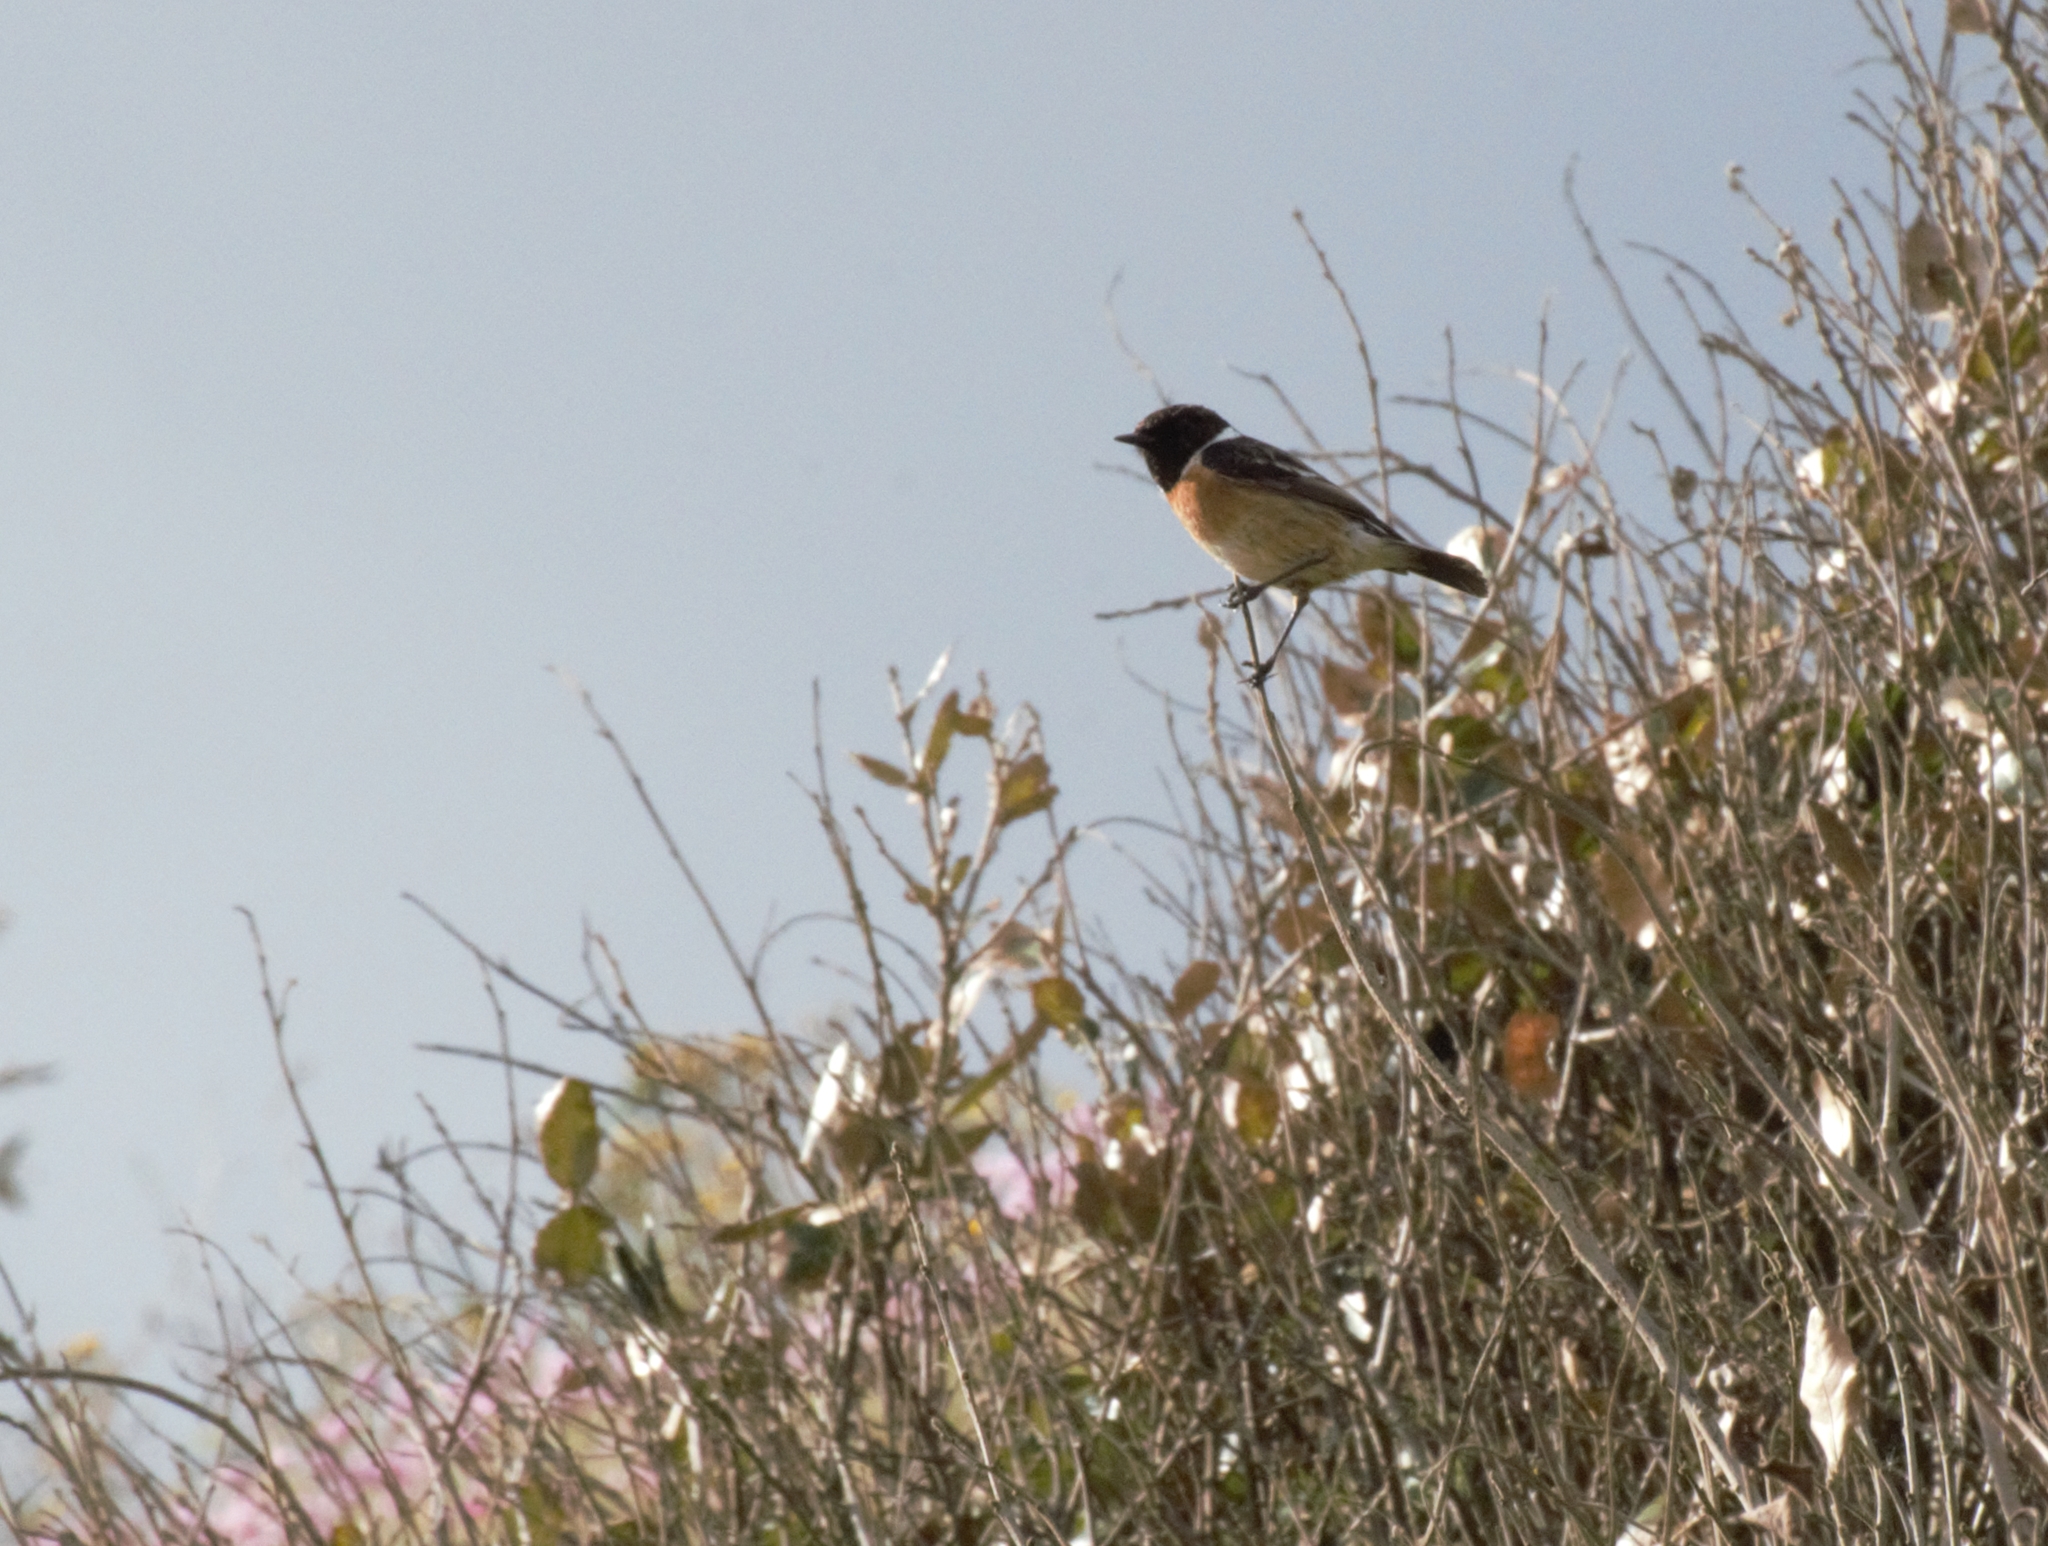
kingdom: Animalia
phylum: Chordata
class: Aves
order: Passeriformes
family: Muscicapidae
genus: Saxicola
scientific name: Saxicola rubicola
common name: European stonechat
